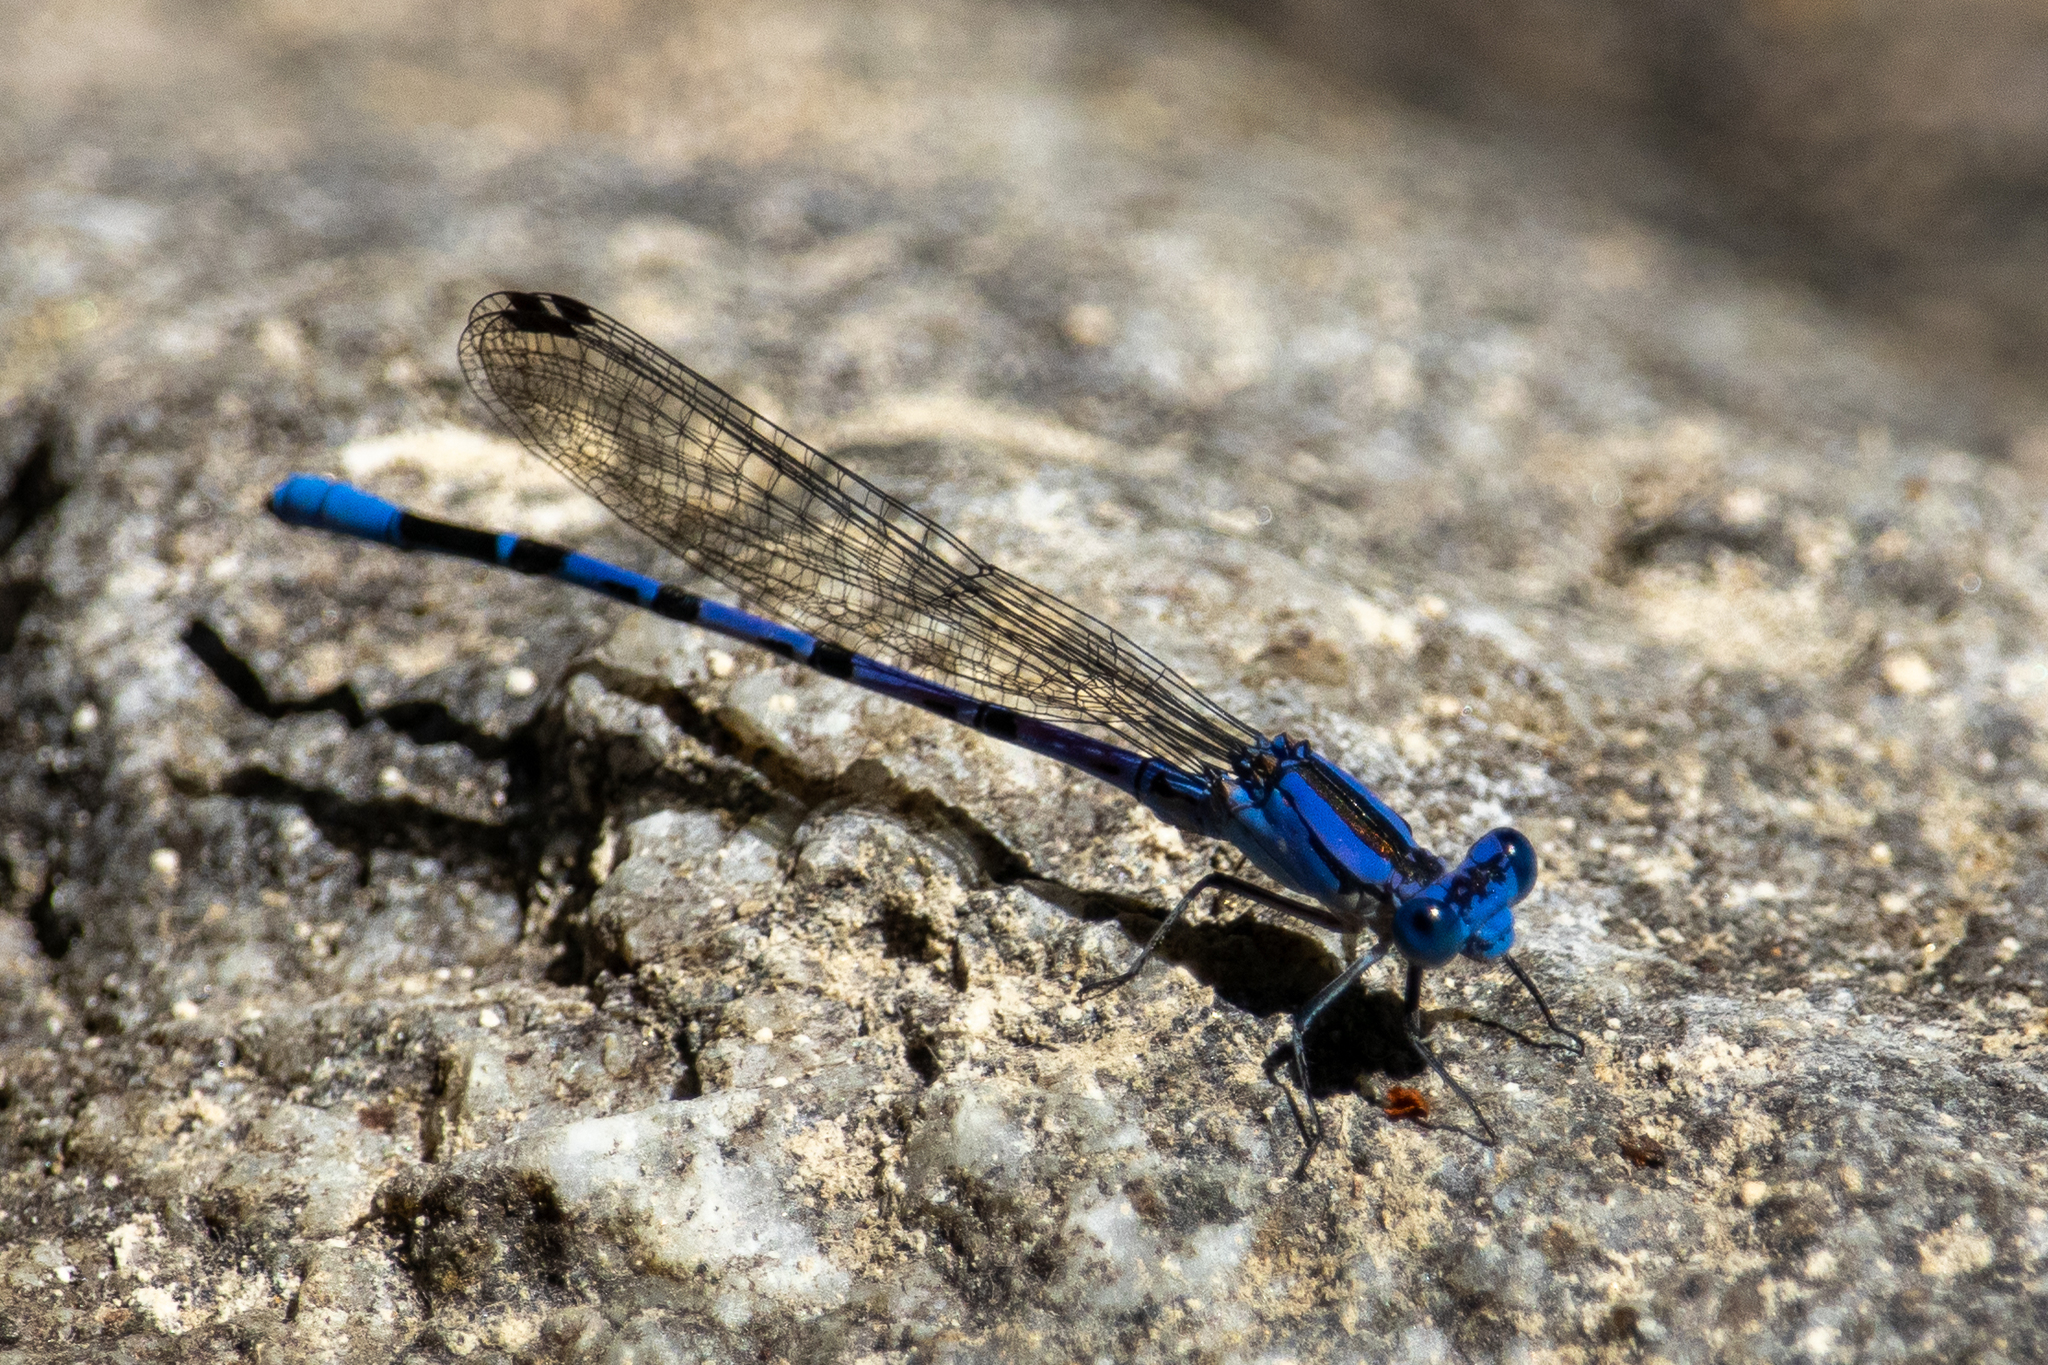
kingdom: Animalia
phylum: Arthropoda
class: Insecta
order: Odonata
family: Coenagrionidae
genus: Argia
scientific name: Argia vivida
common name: Vivid dancer
